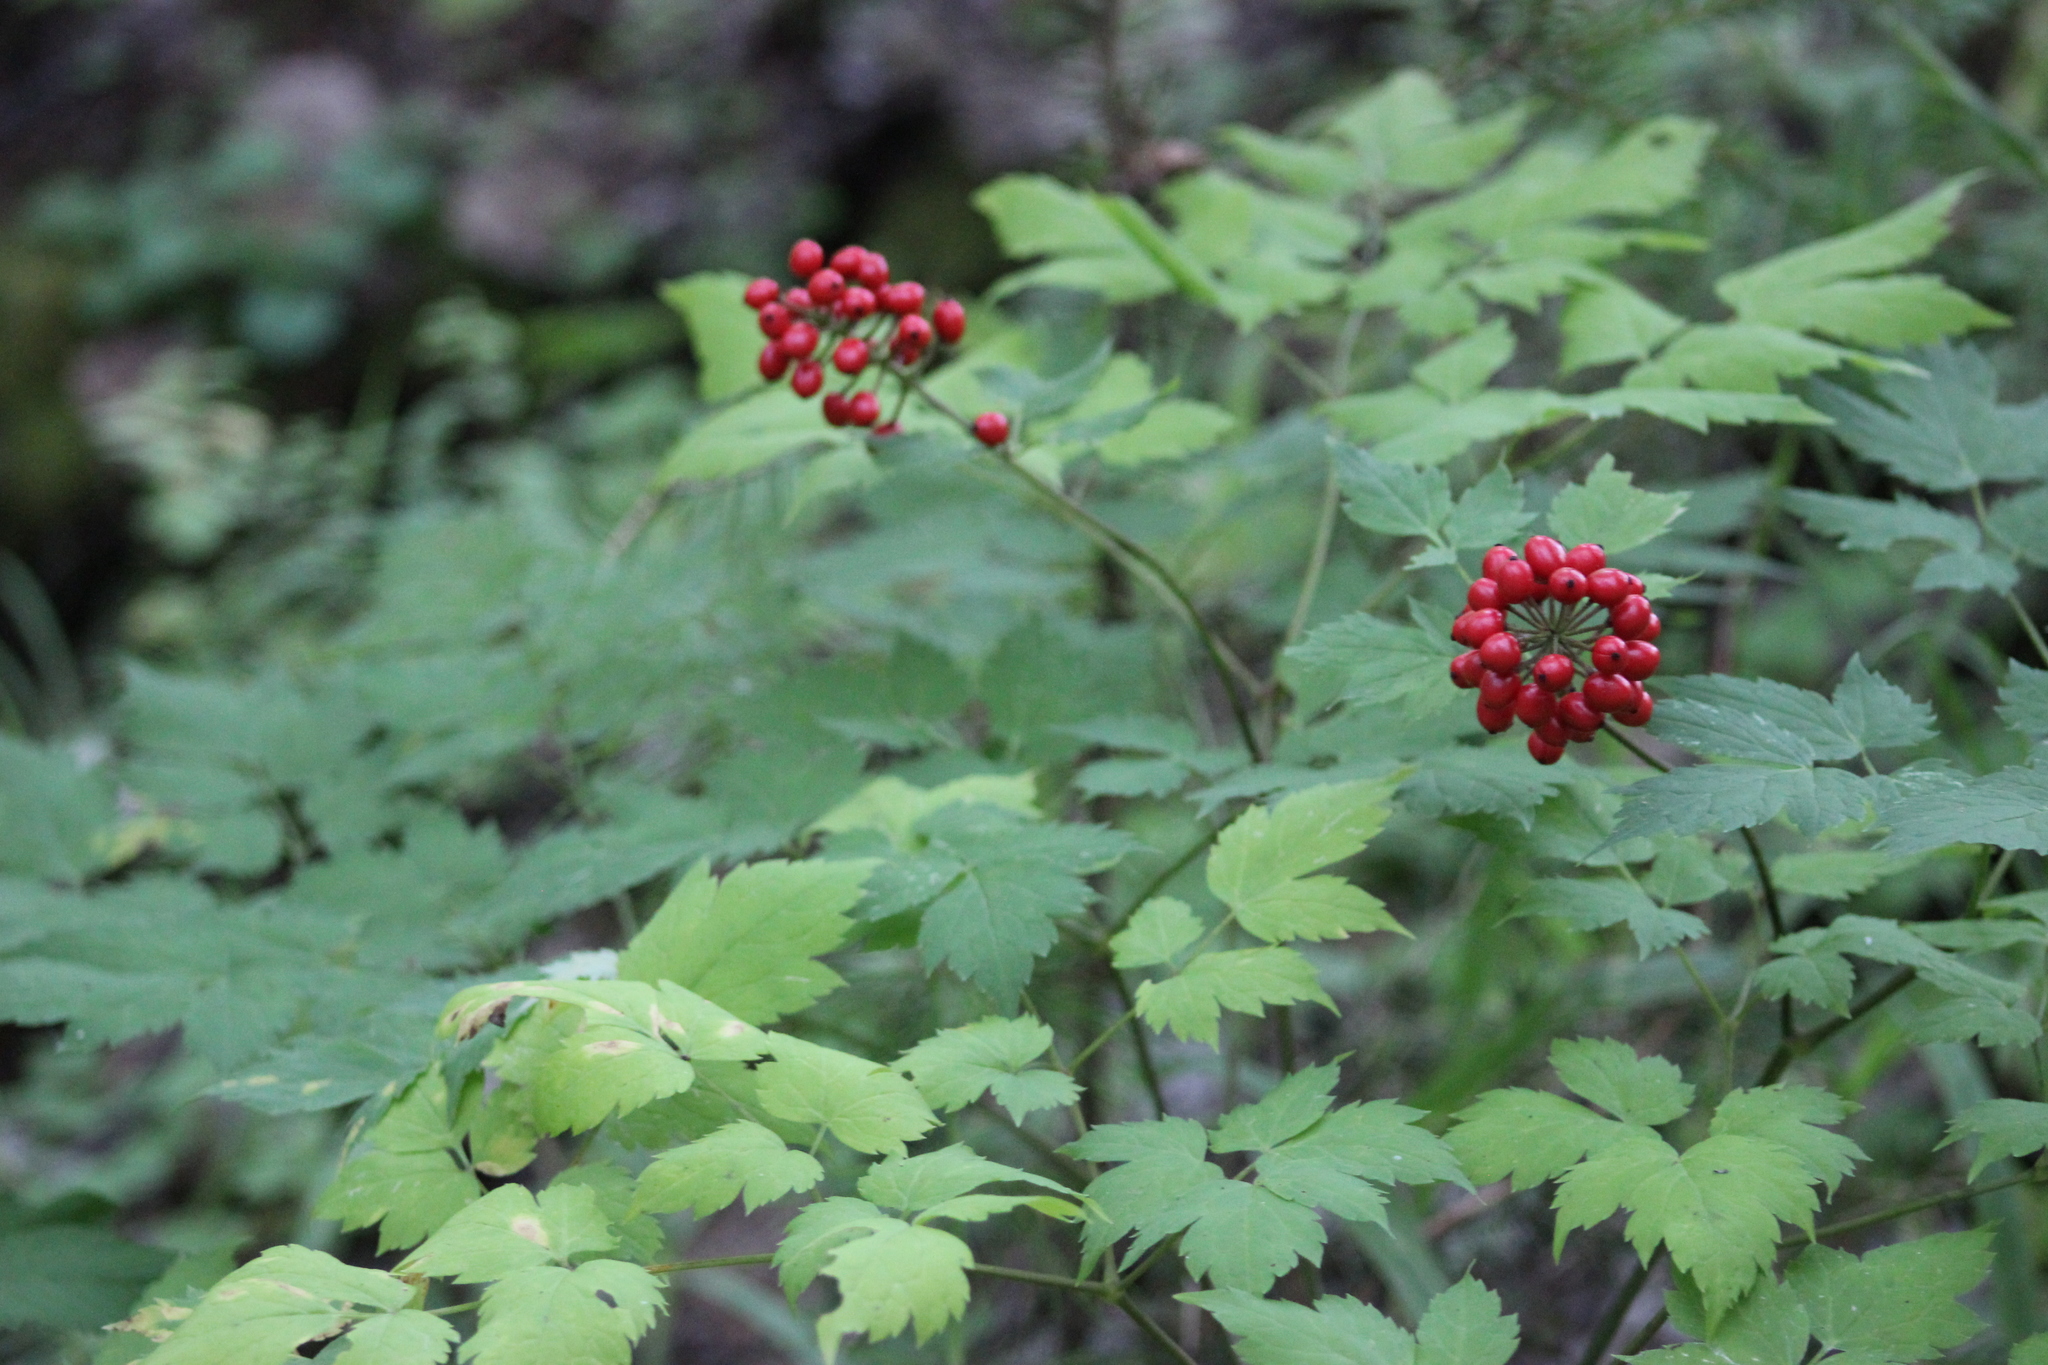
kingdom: Plantae
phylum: Tracheophyta
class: Magnoliopsida
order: Ranunculales
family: Ranunculaceae
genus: Actaea
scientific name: Actaea erythrocarpa
